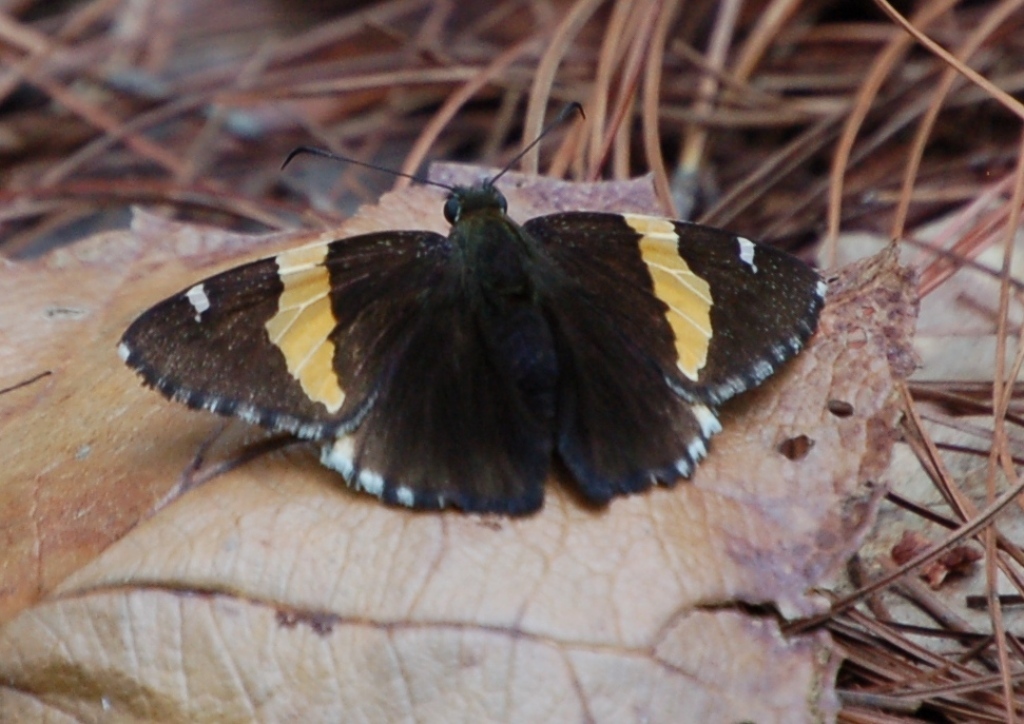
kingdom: Animalia
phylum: Arthropoda
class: Arachnida
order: Scorpiones
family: Bothriuridae
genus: Telegonus
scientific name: Telegonus cellus
